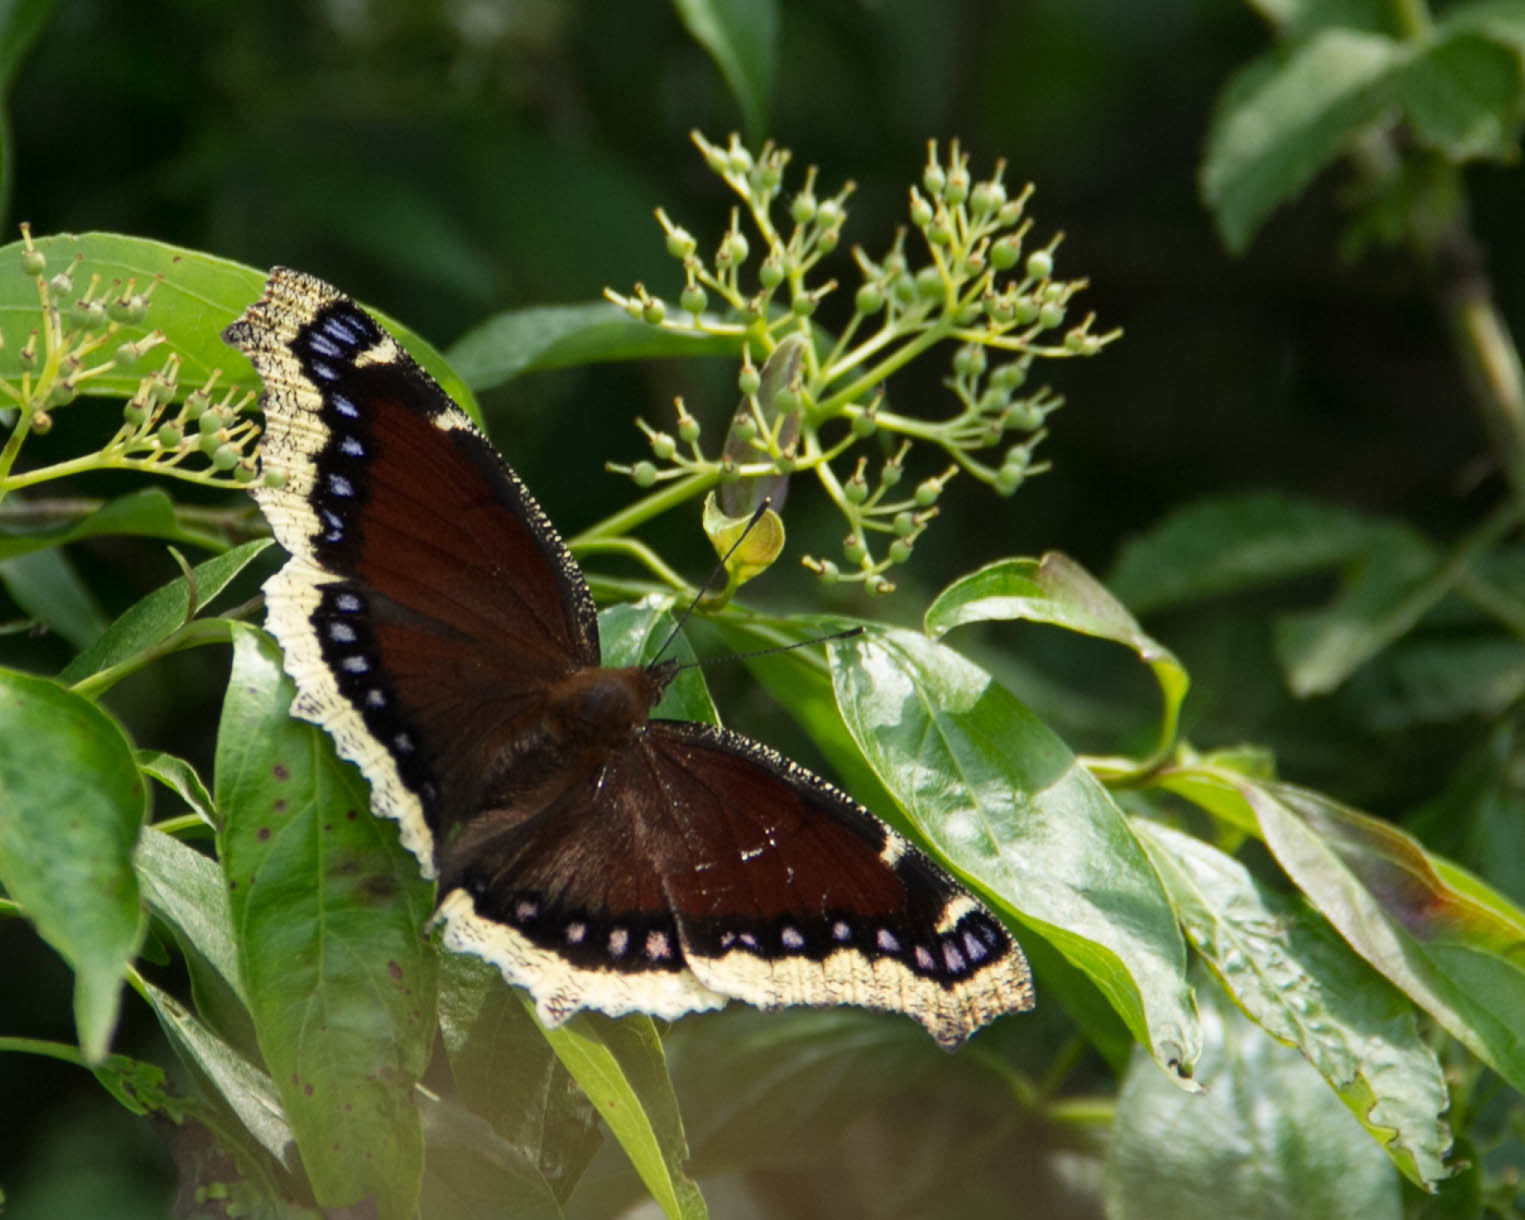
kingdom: Animalia
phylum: Arthropoda
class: Insecta
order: Lepidoptera
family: Nymphalidae
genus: Nymphalis
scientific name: Nymphalis antiopa
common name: Camberwell beauty
